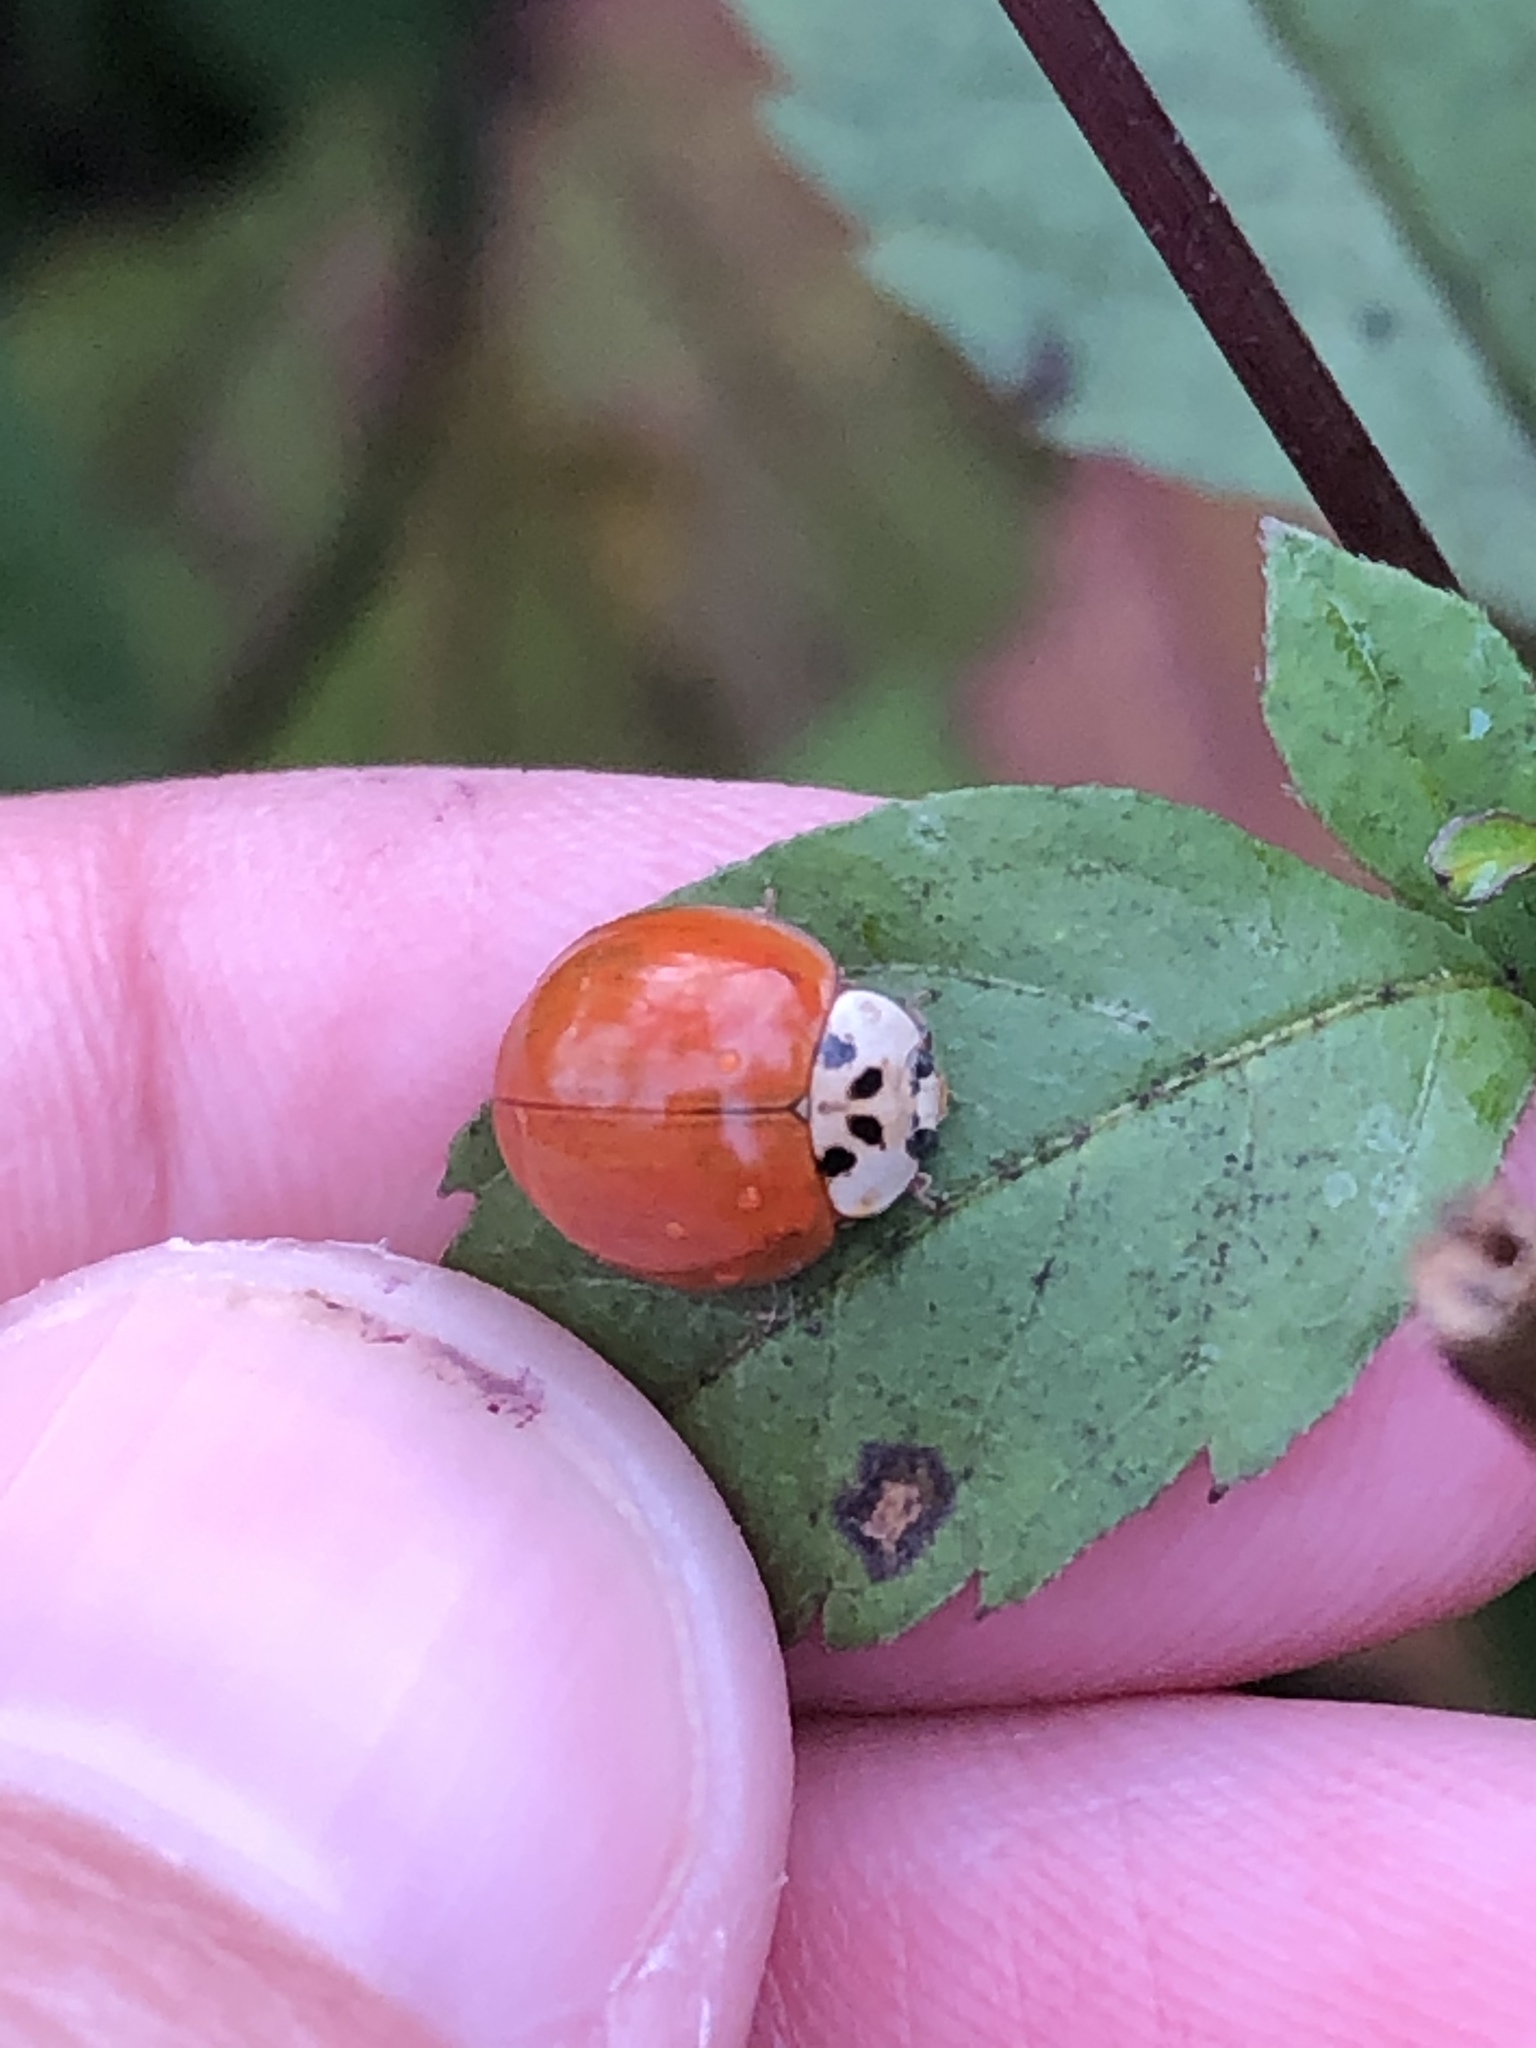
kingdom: Animalia
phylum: Arthropoda
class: Insecta
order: Coleoptera
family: Coccinellidae
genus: Harmonia
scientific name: Harmonia axyridis
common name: Harlequin ladybird
